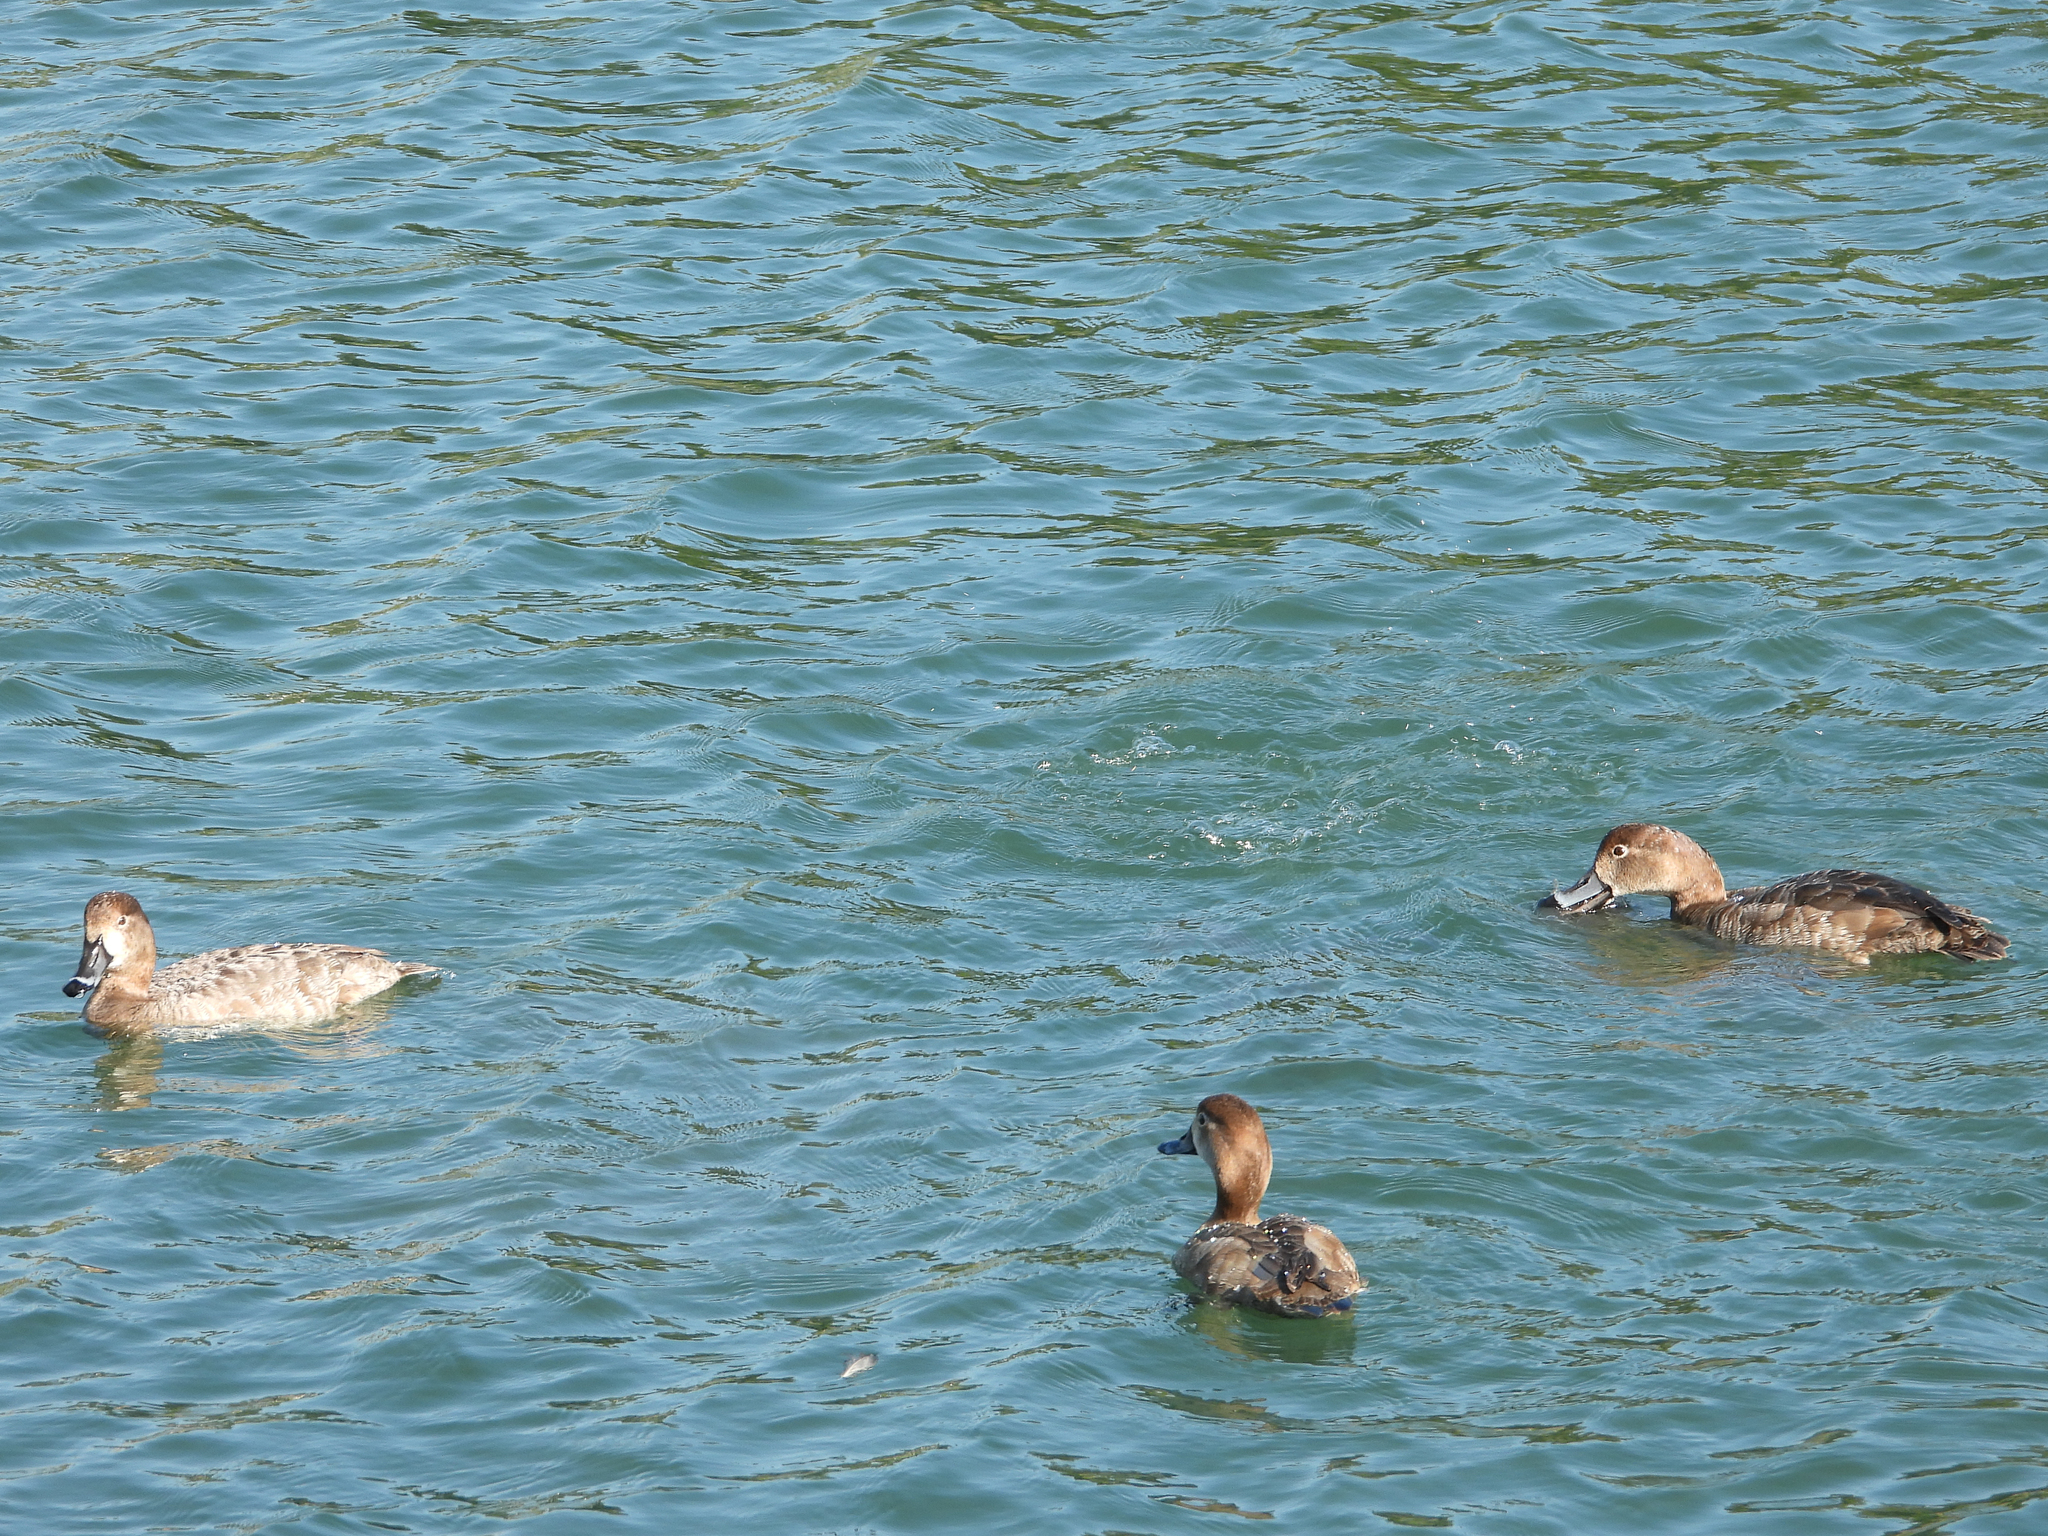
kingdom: Animalia
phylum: Chordata
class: Aves
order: Anseriformes
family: Anatidae
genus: Aythya
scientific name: Aythya americana
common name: Redhead
